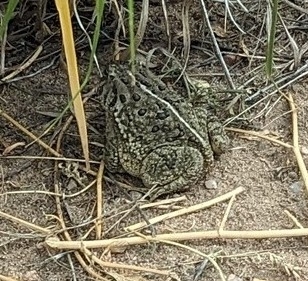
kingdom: Animalia
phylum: Chordata
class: Amphibia
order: Anura
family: Bufonidae
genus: Anaxyrus
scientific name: Anaxyrus woodhousii
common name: Woodhouse's toad
